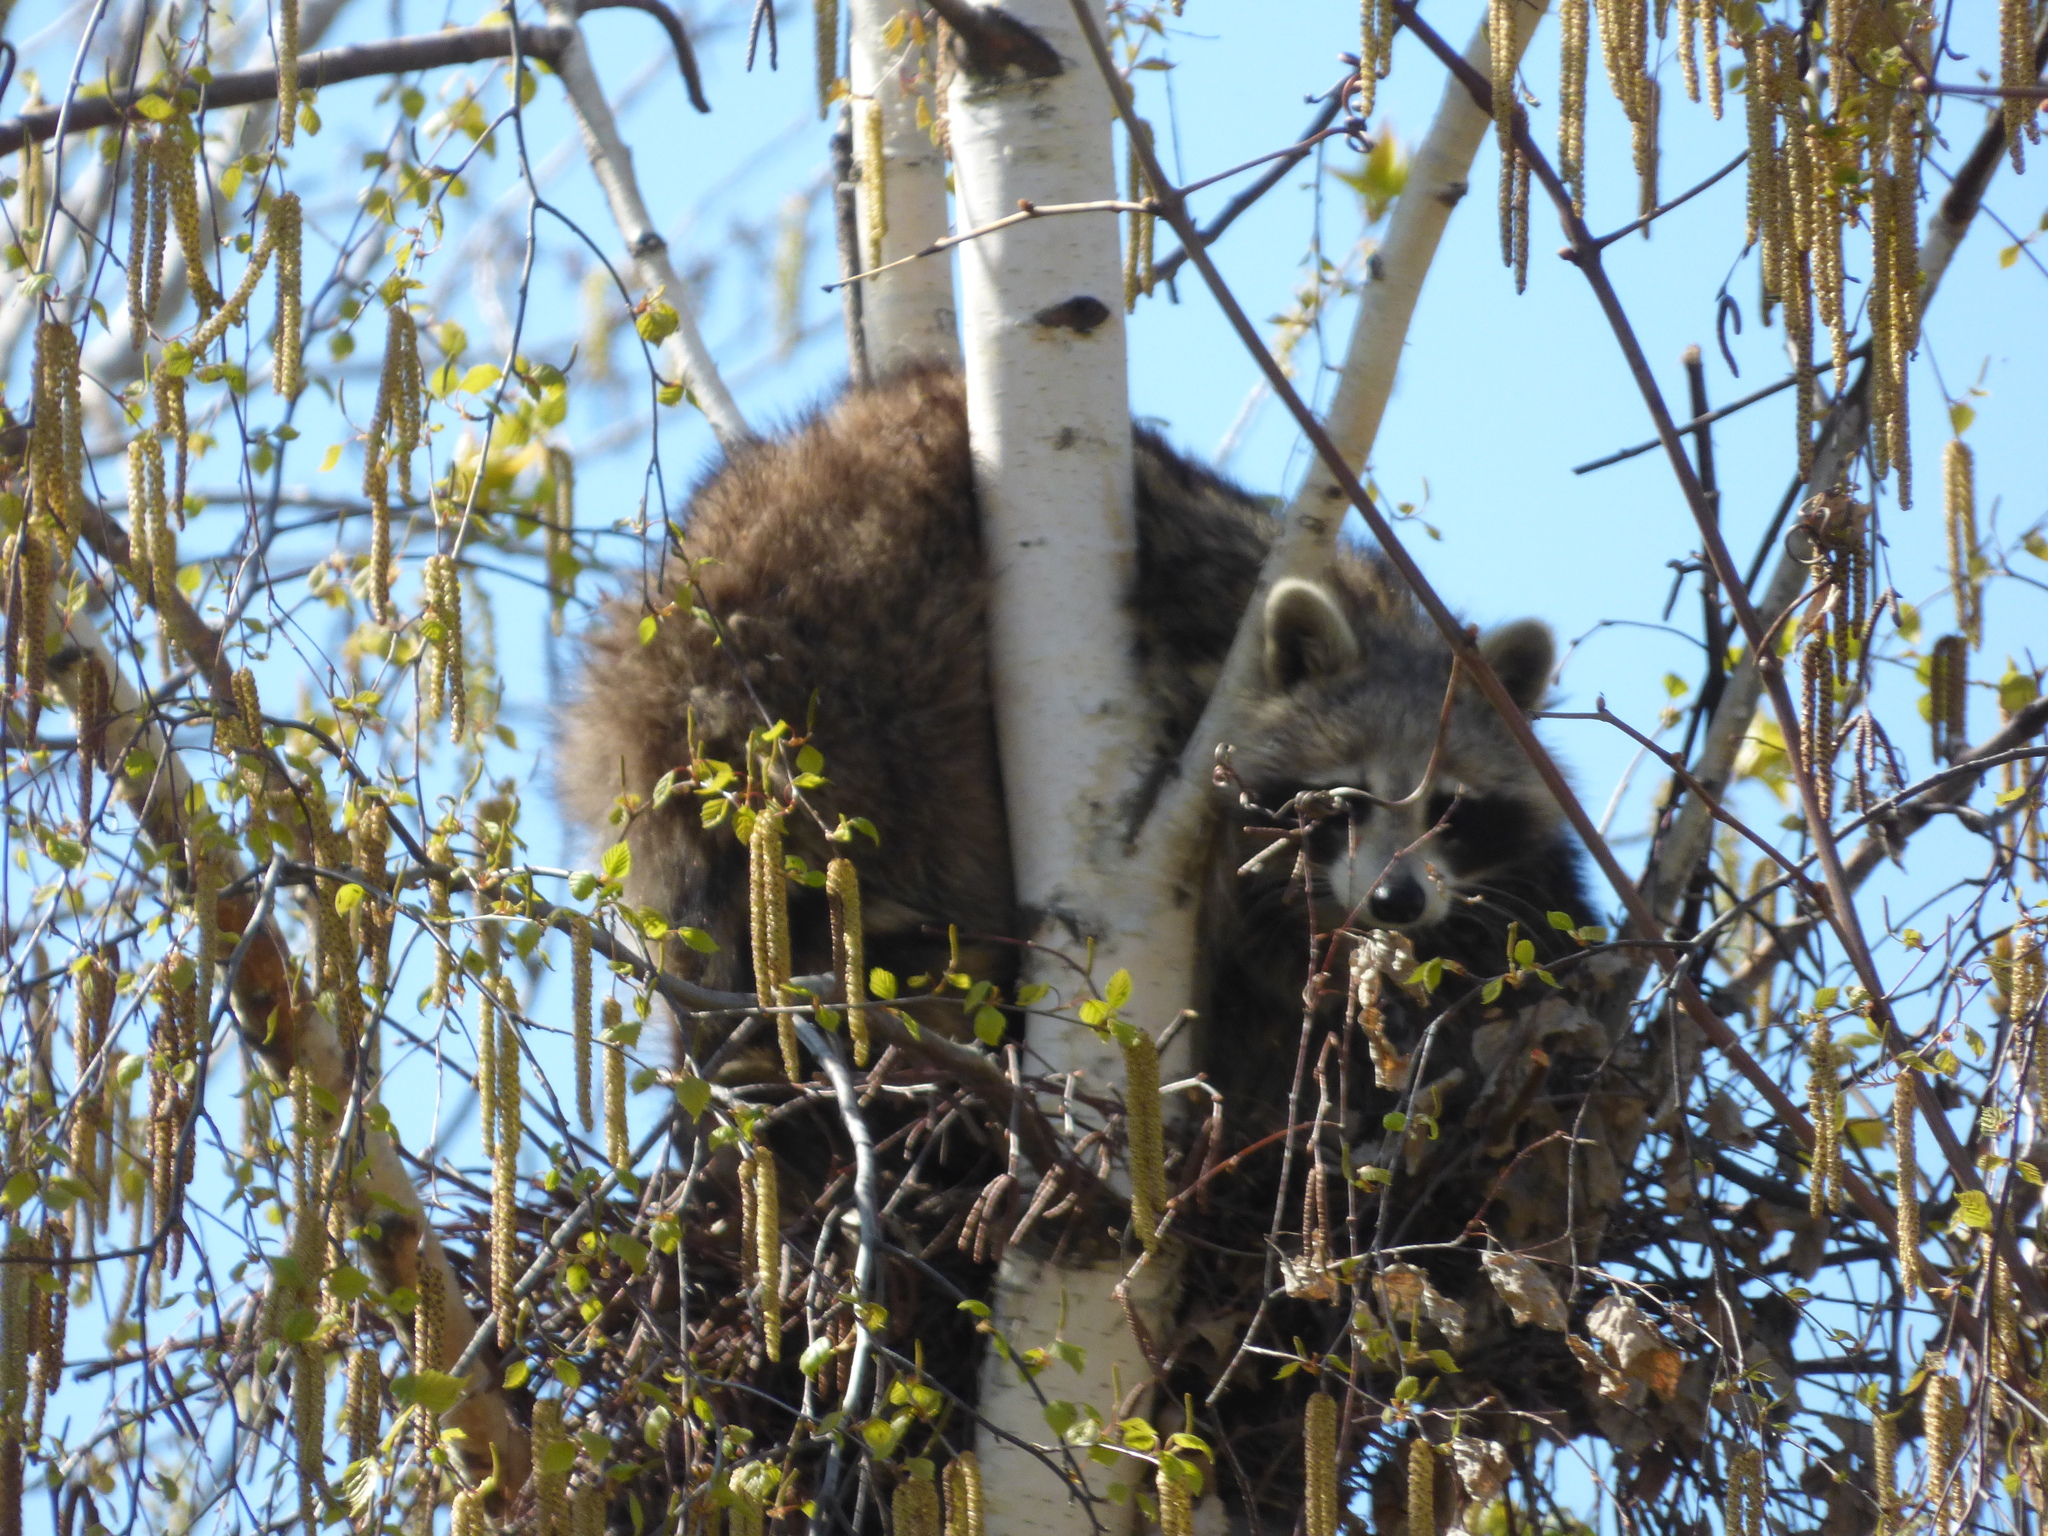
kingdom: Animalia
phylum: Chordata
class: Mammalia
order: Carnivora
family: Procyonidae
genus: Procyon
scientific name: Procyon lotor
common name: Raccoon
